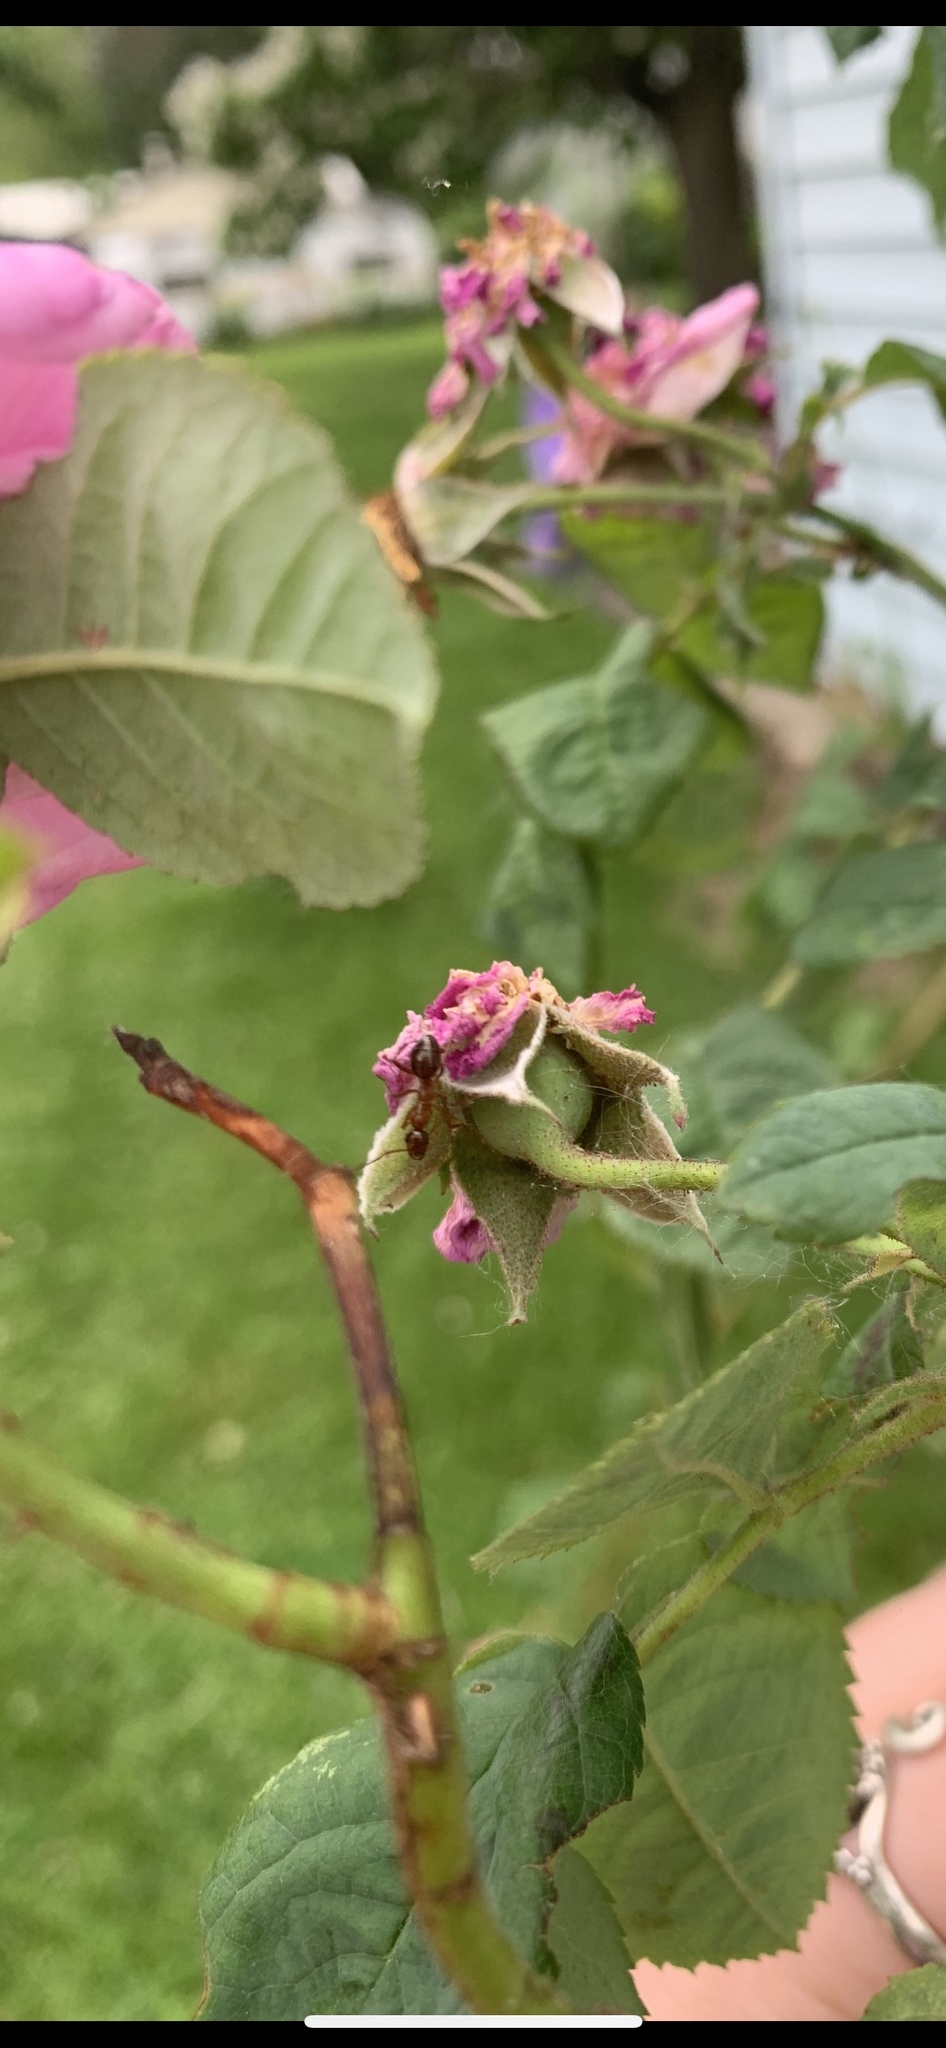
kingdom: Animalia
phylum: Arthropoda
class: Insecta
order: Hymenoptera
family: Formicidae
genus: Formica
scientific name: Formica
